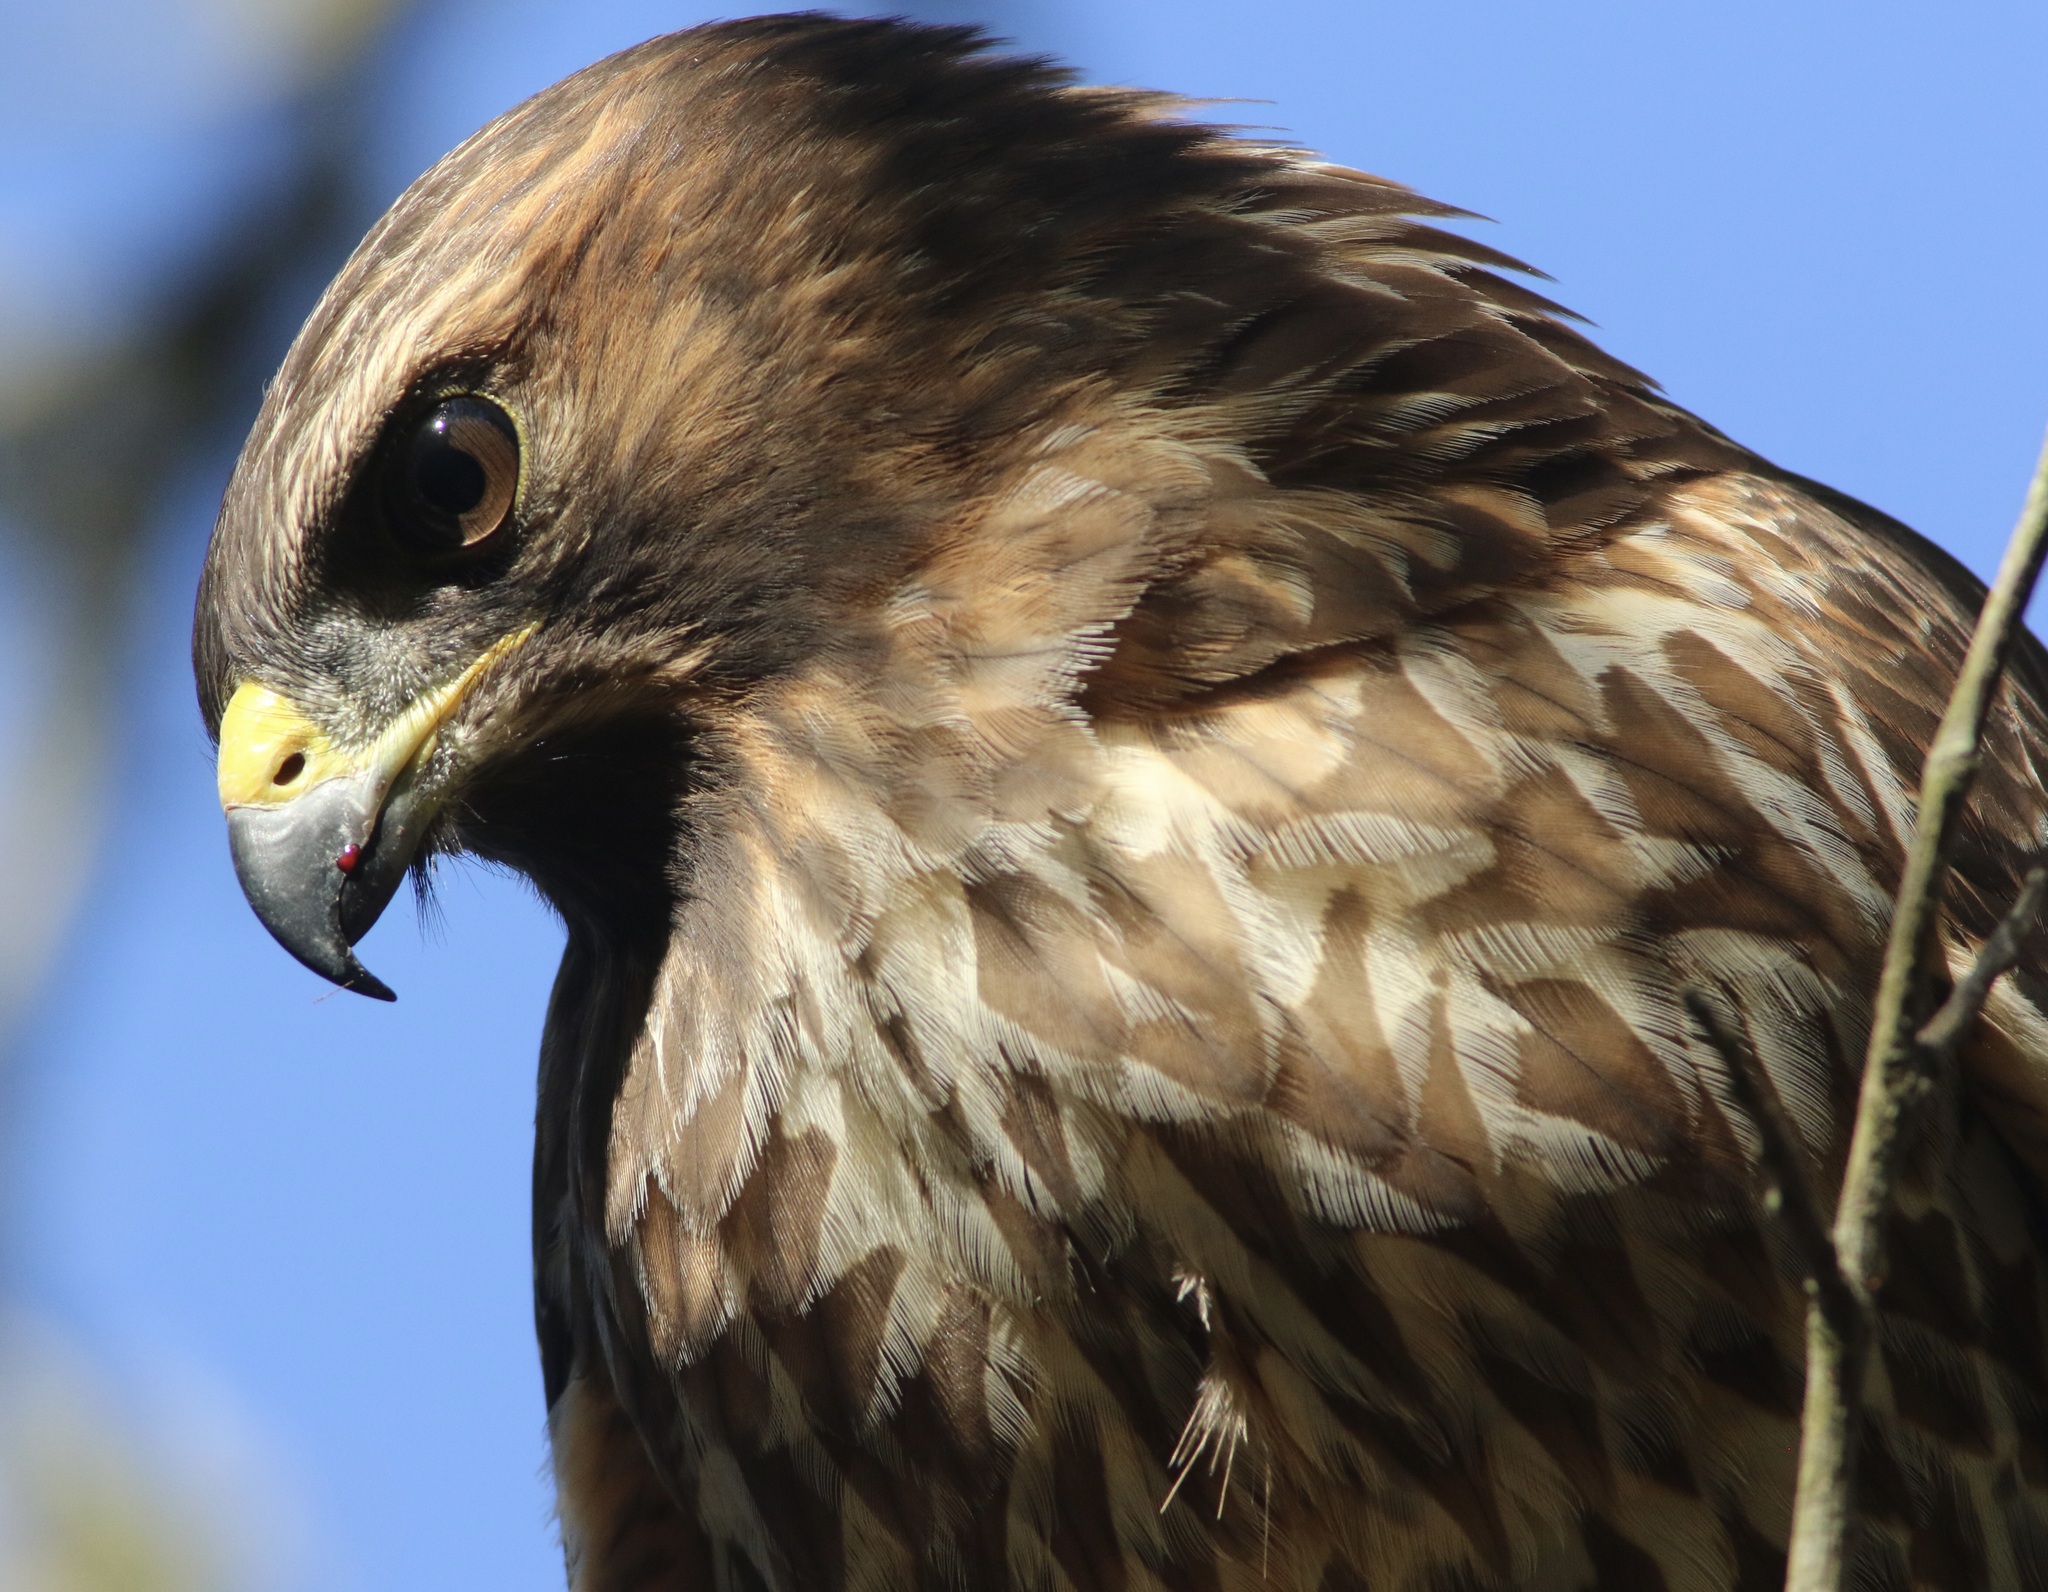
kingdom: Animalia
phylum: Chordata
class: Aves
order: Accipitriformes
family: Accipitridae
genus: Buteo
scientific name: Buteo lineatus
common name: Red-shouldered hawk
